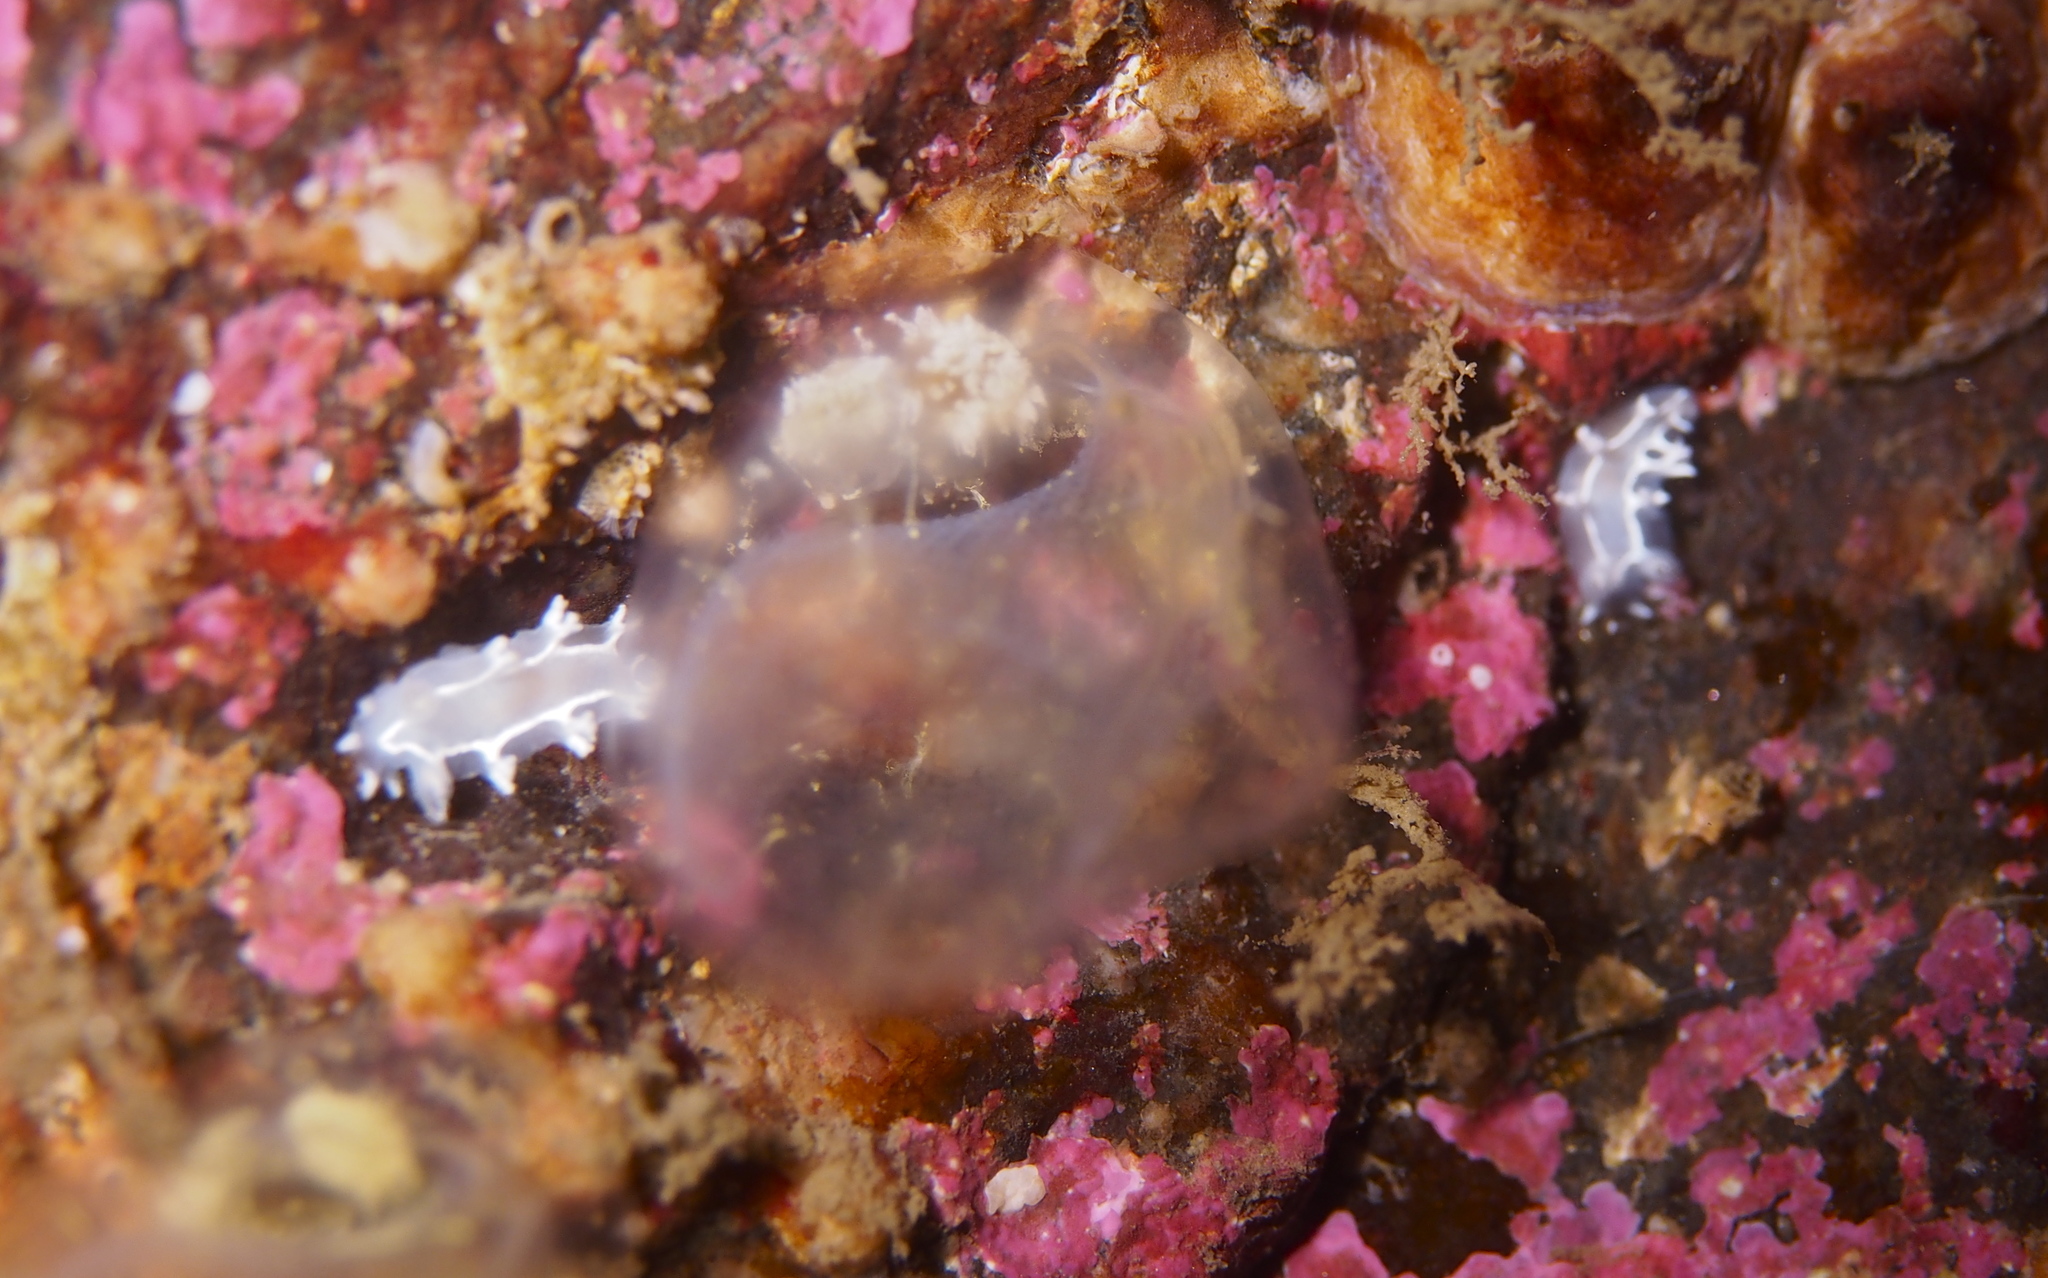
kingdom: Animalia
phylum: Mollusca
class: Gastropoda
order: Nudibranchia
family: Tritoniidae
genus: Duvaucelia
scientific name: Duvaucelia lineata
